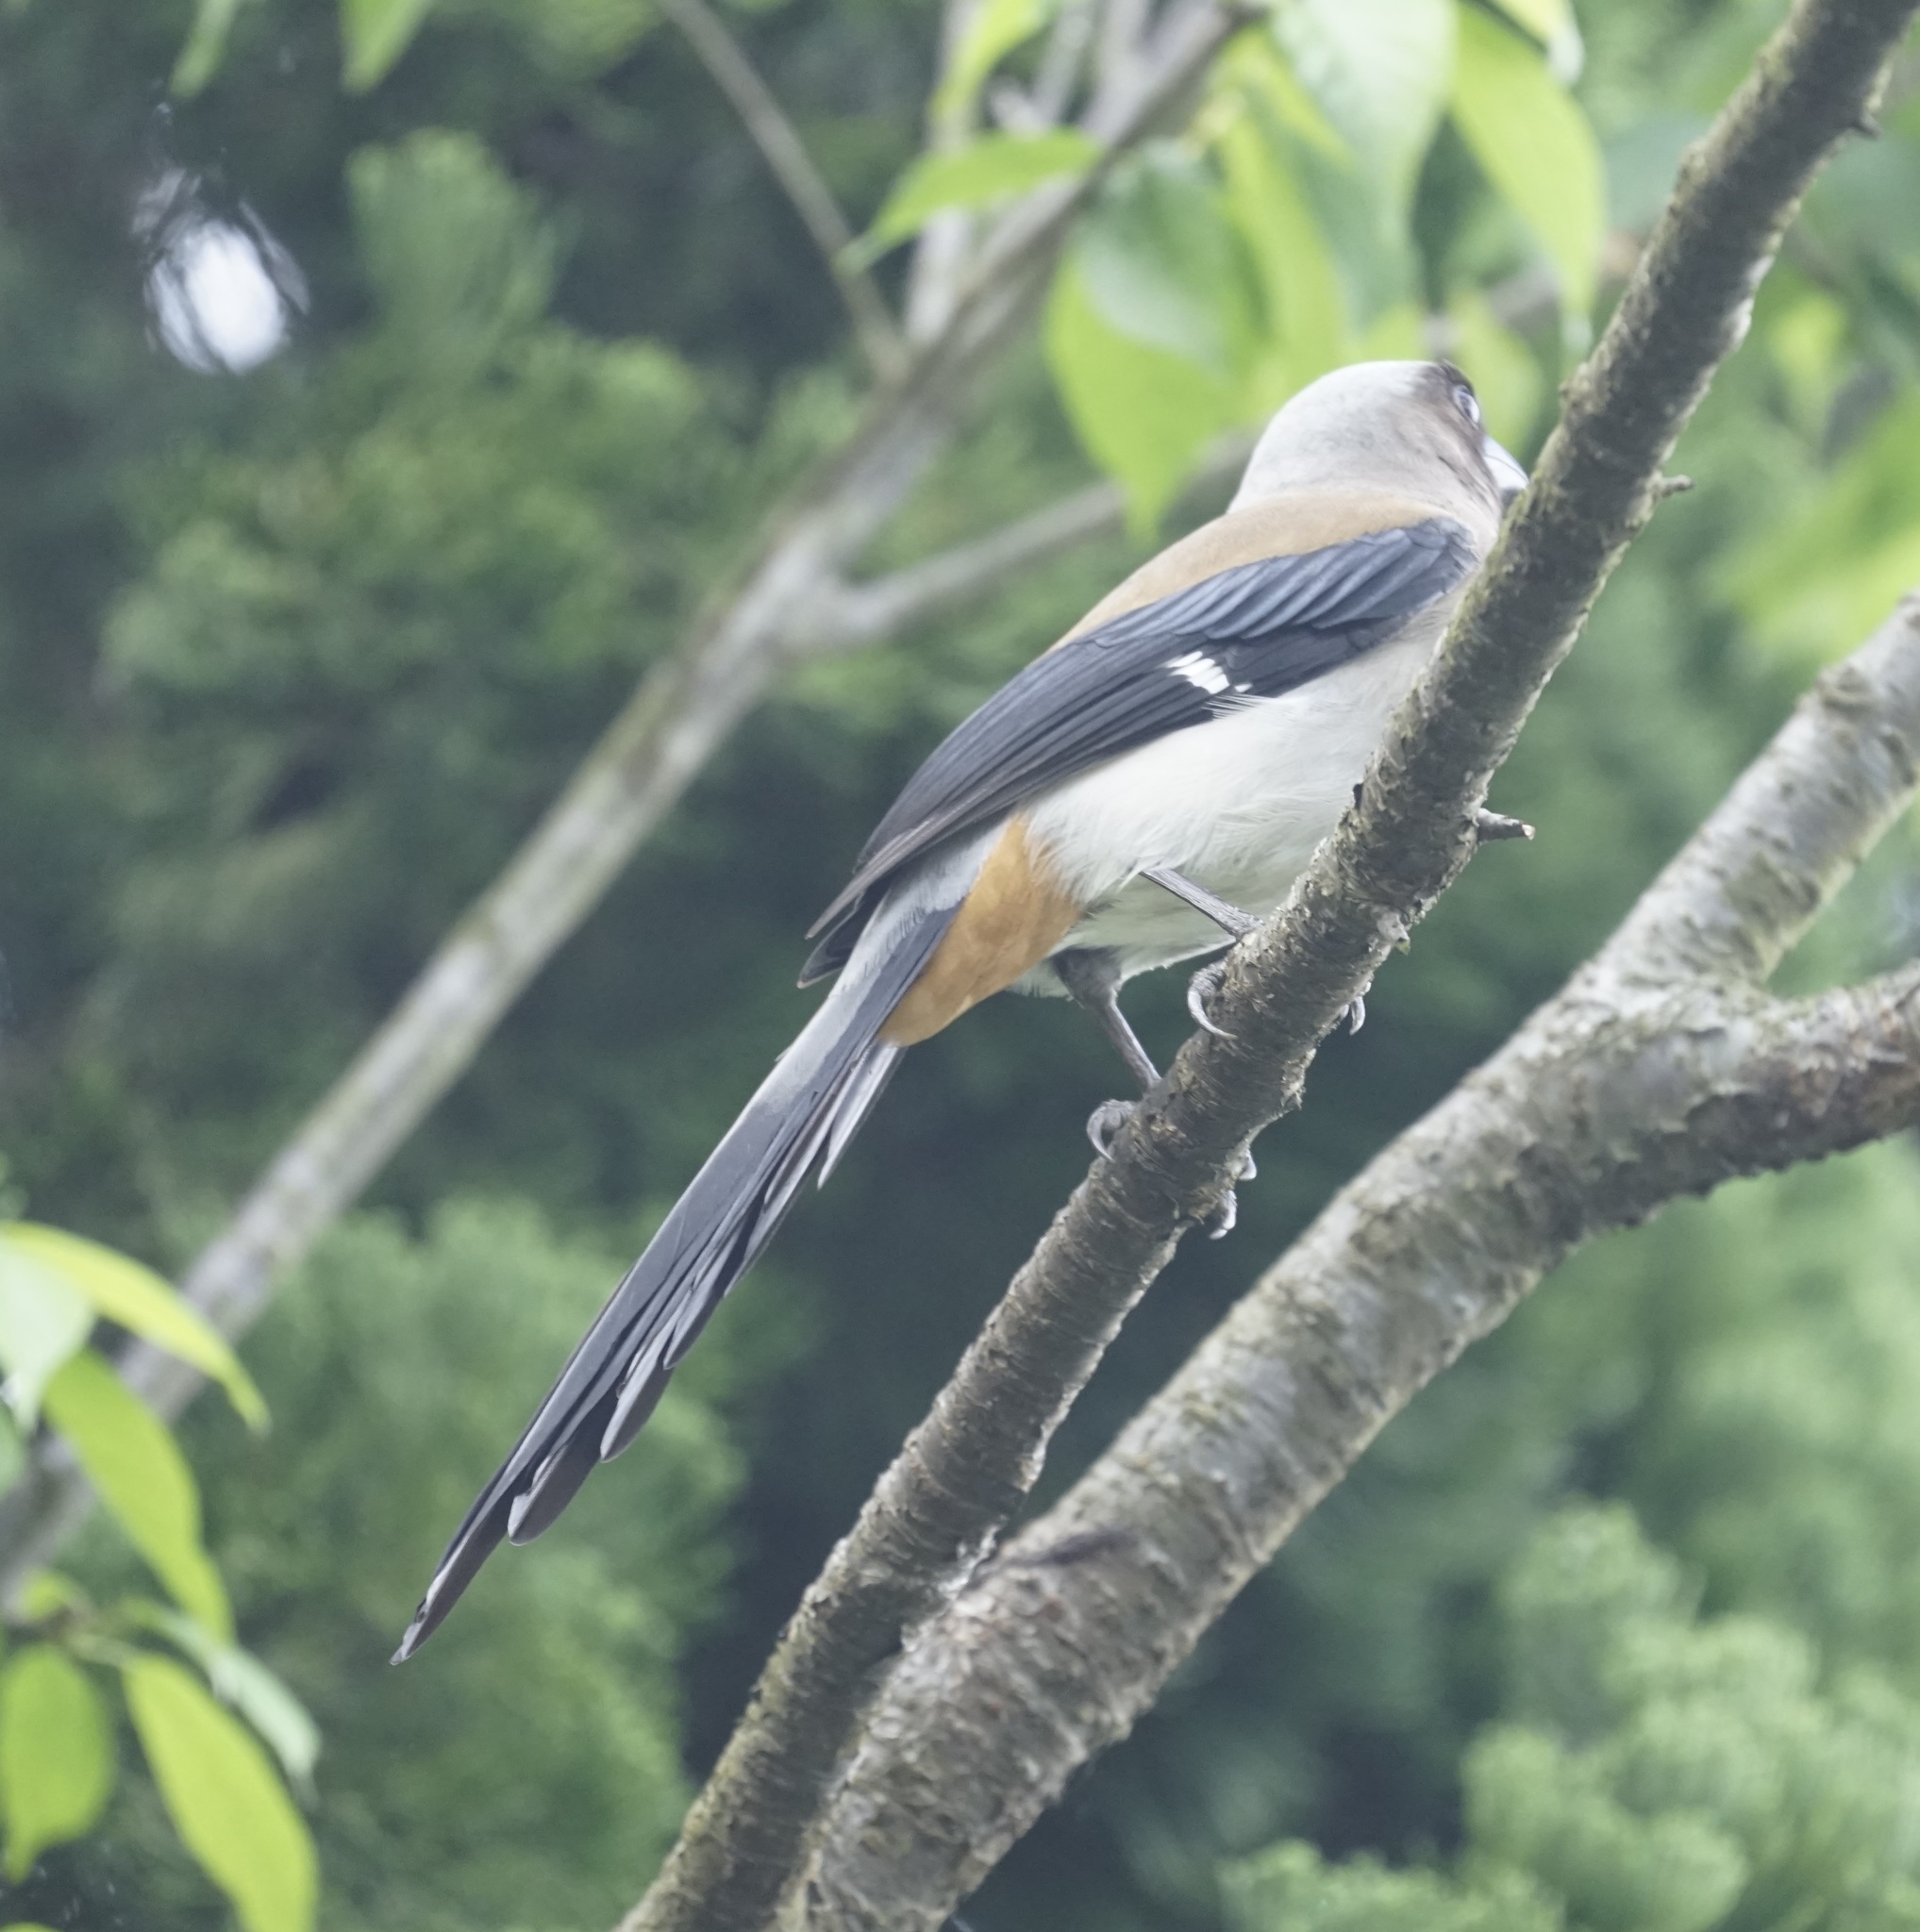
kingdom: Animalia
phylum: Chordata
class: Aves
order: Passeriformes
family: Corvidae
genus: Dendrocitta
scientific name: Dendrocitta formosae
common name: Grey treepie
